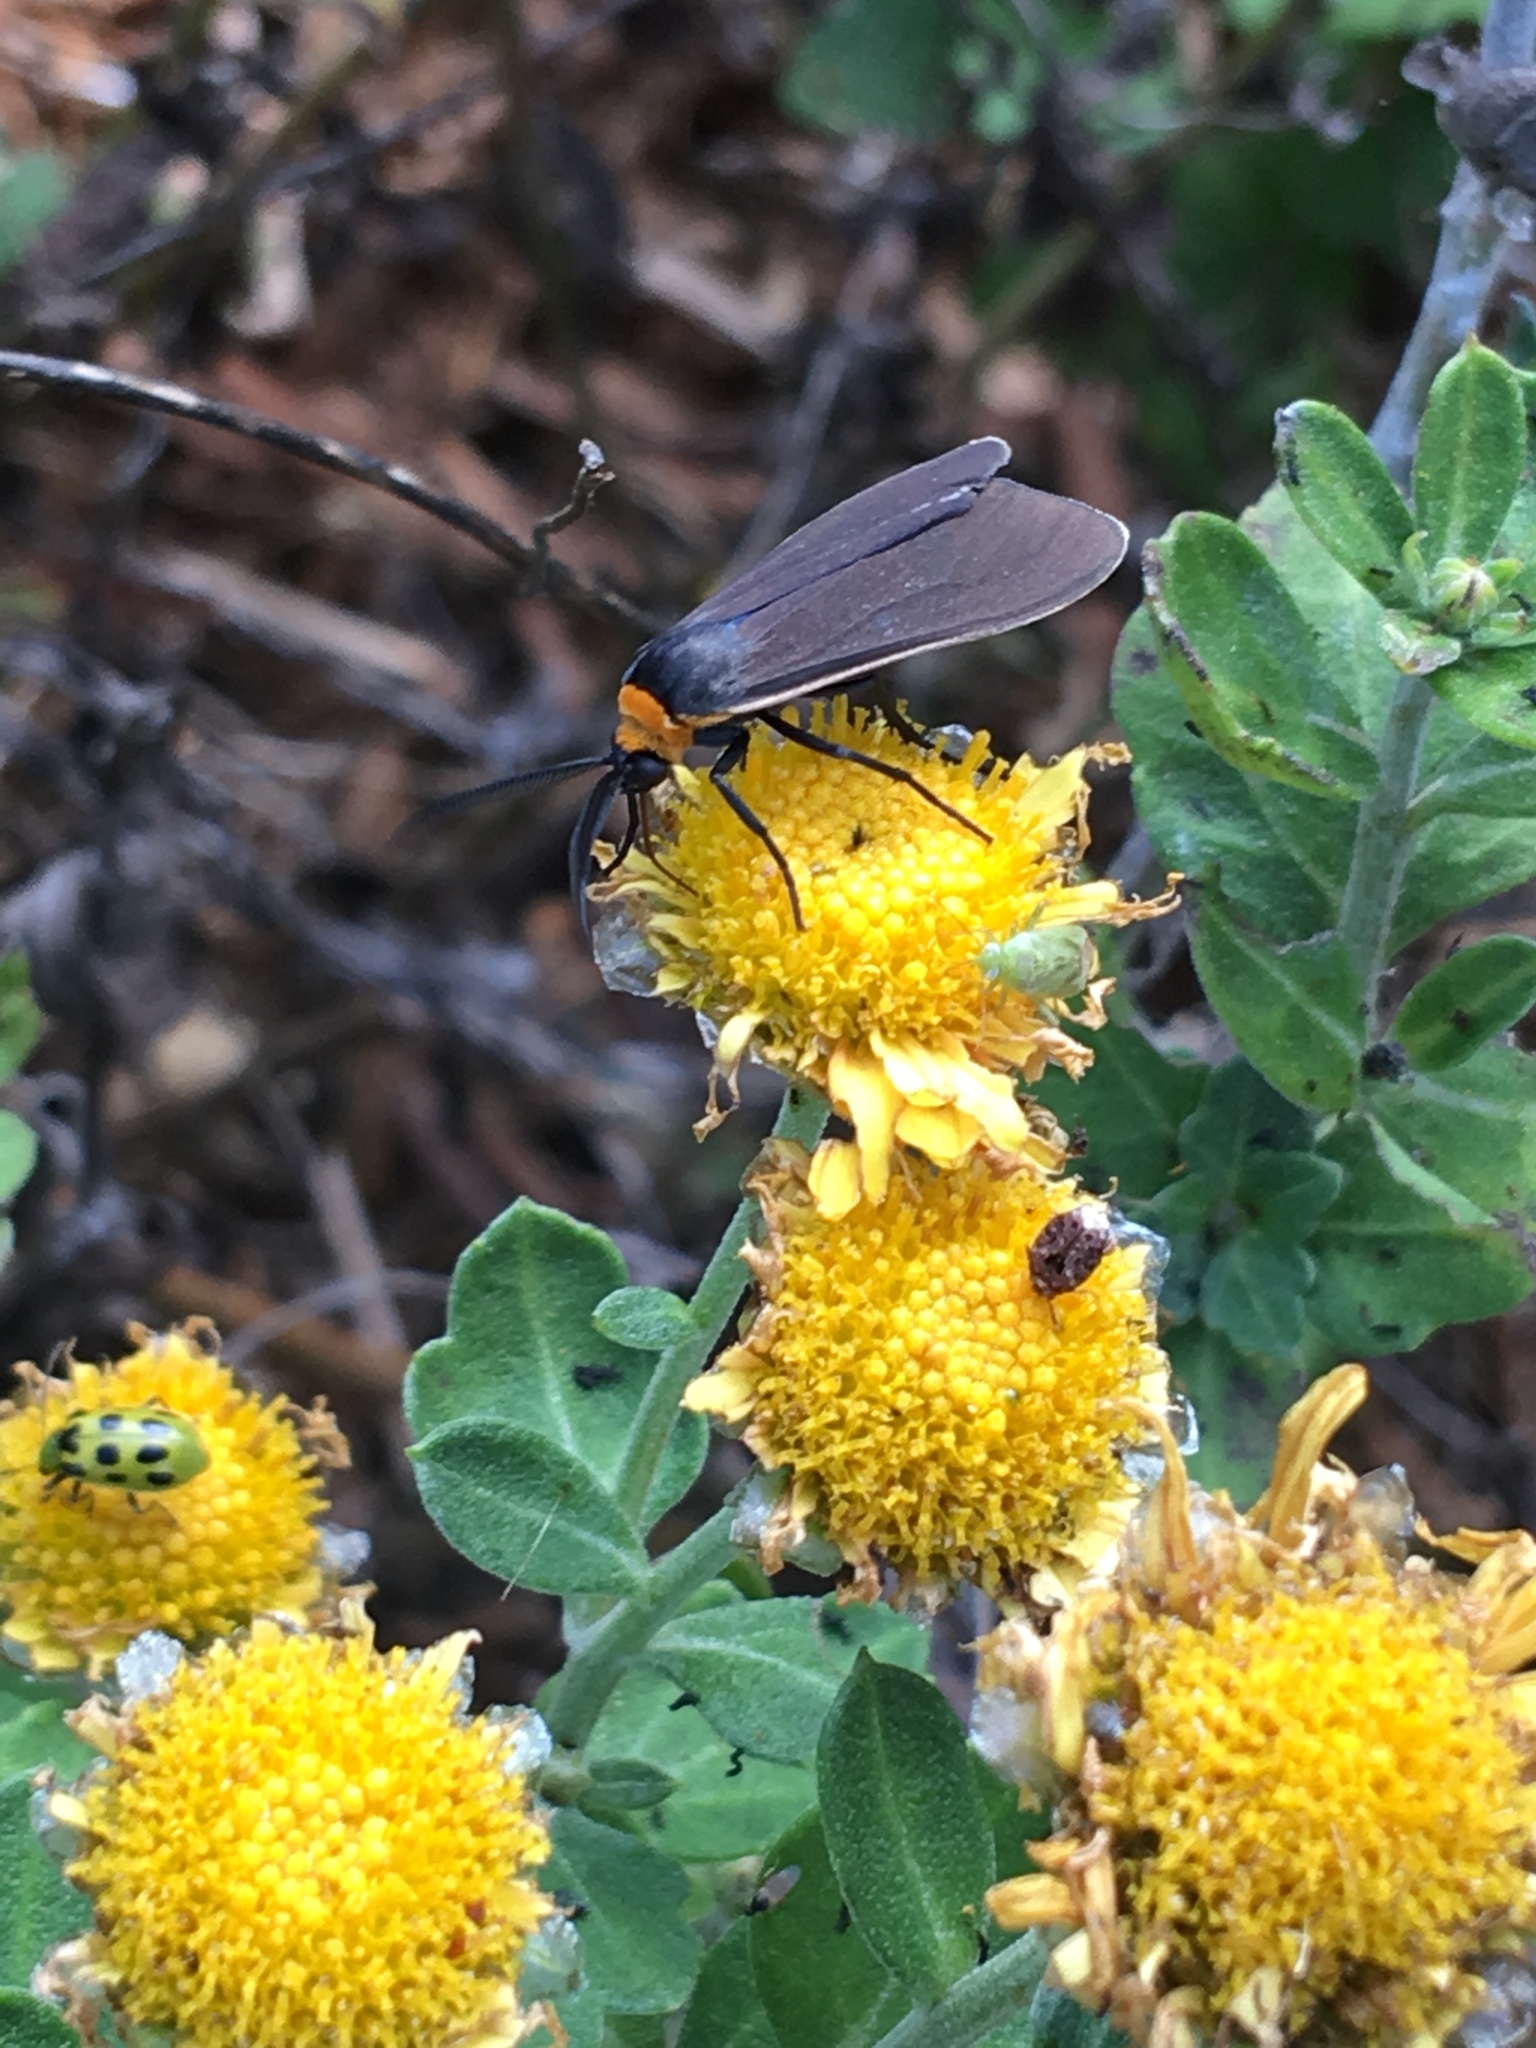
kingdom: Animalia
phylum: Arthropoda
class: Insecta
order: Lepidoptera
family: Erebidae
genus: Cisseps
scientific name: Cisseps fulvicollis
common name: Yellow-collared scape moth
